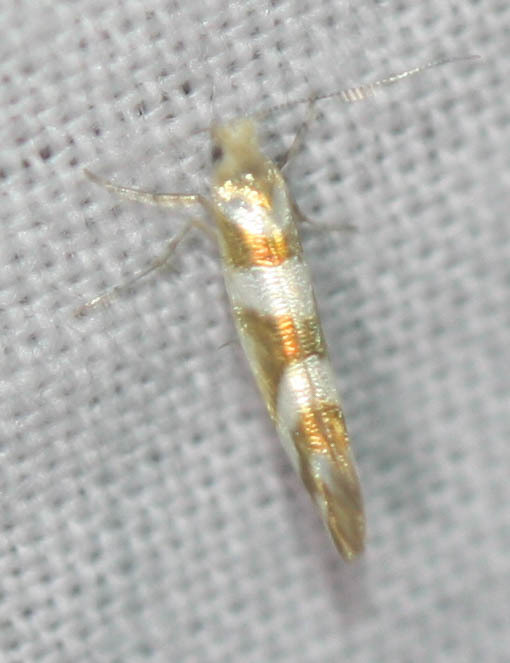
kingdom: Animalia
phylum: Arthropoda
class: Insecta
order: Lepidoptera
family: Argyresthiidae
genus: Argyresthia
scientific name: Argyresthia goedartella
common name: Golden argent
